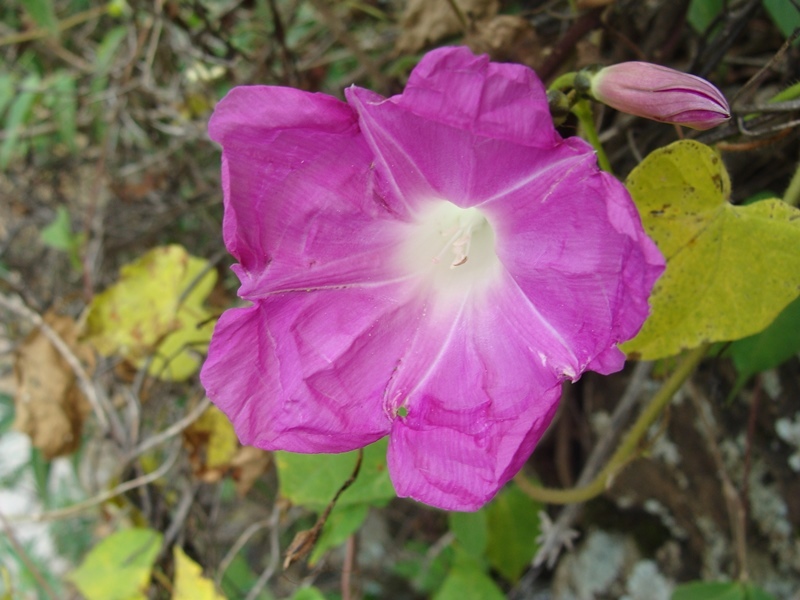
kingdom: Plantae
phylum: Tracheophyta
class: Magnoliopsida
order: Solanales
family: Convolvulaceae
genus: Ipomoea
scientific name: Ipomoea orizabensis
